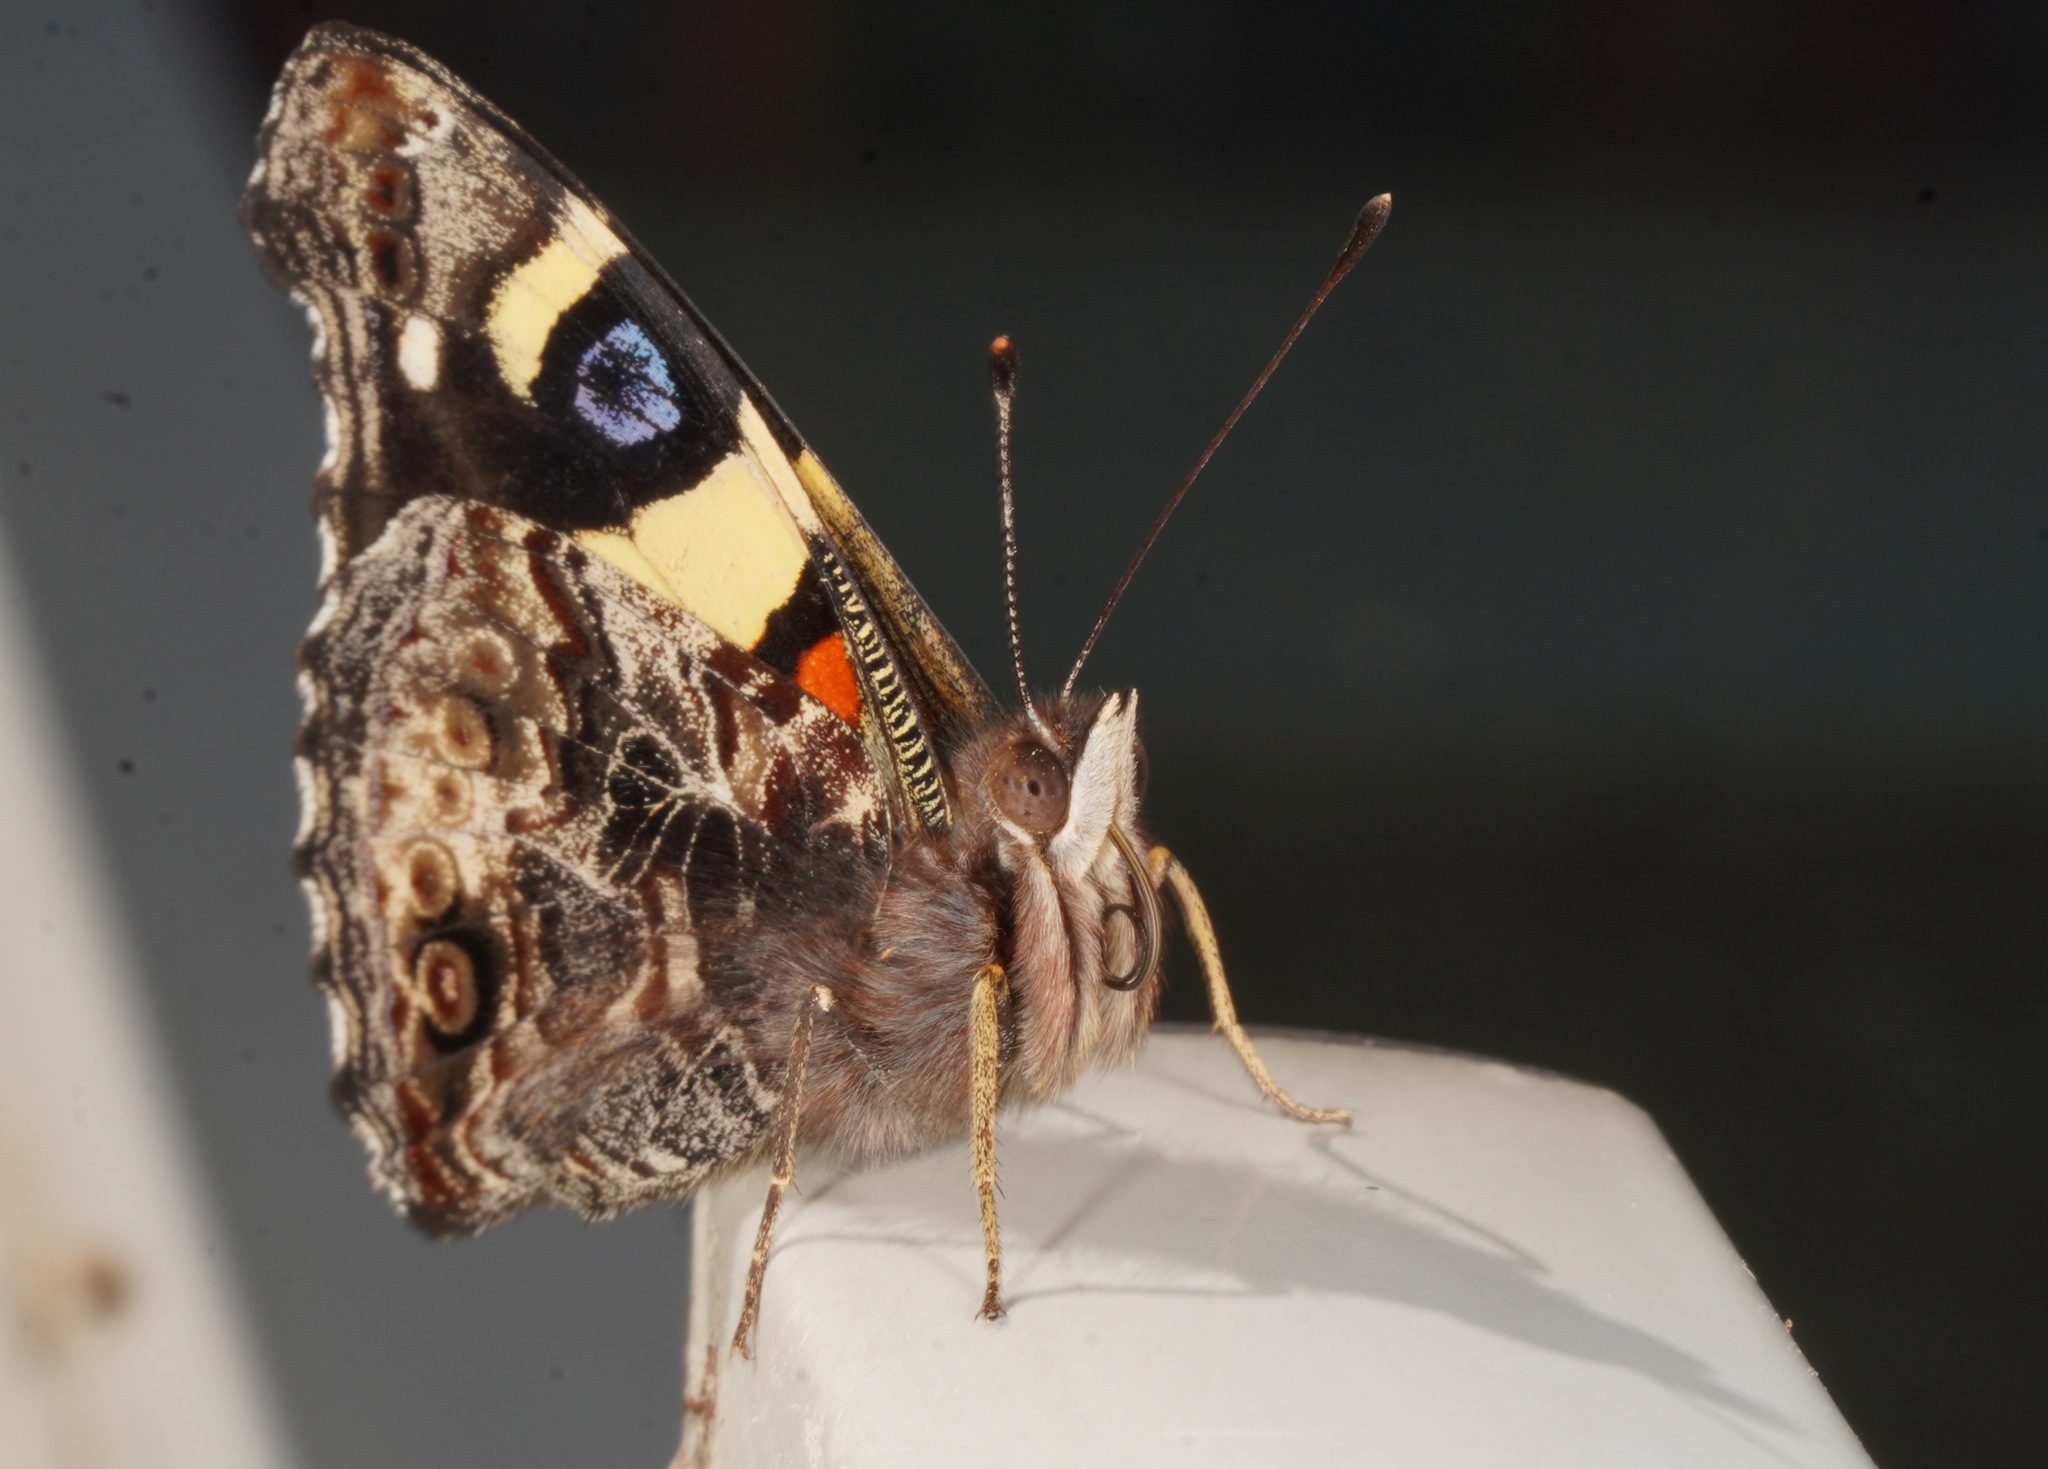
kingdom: Animalia
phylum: Arthropoda
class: Insecta
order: Lepidoptera
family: Nymphalidae
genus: Vanessa
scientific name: Vanessa itea
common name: Yellow admiral
